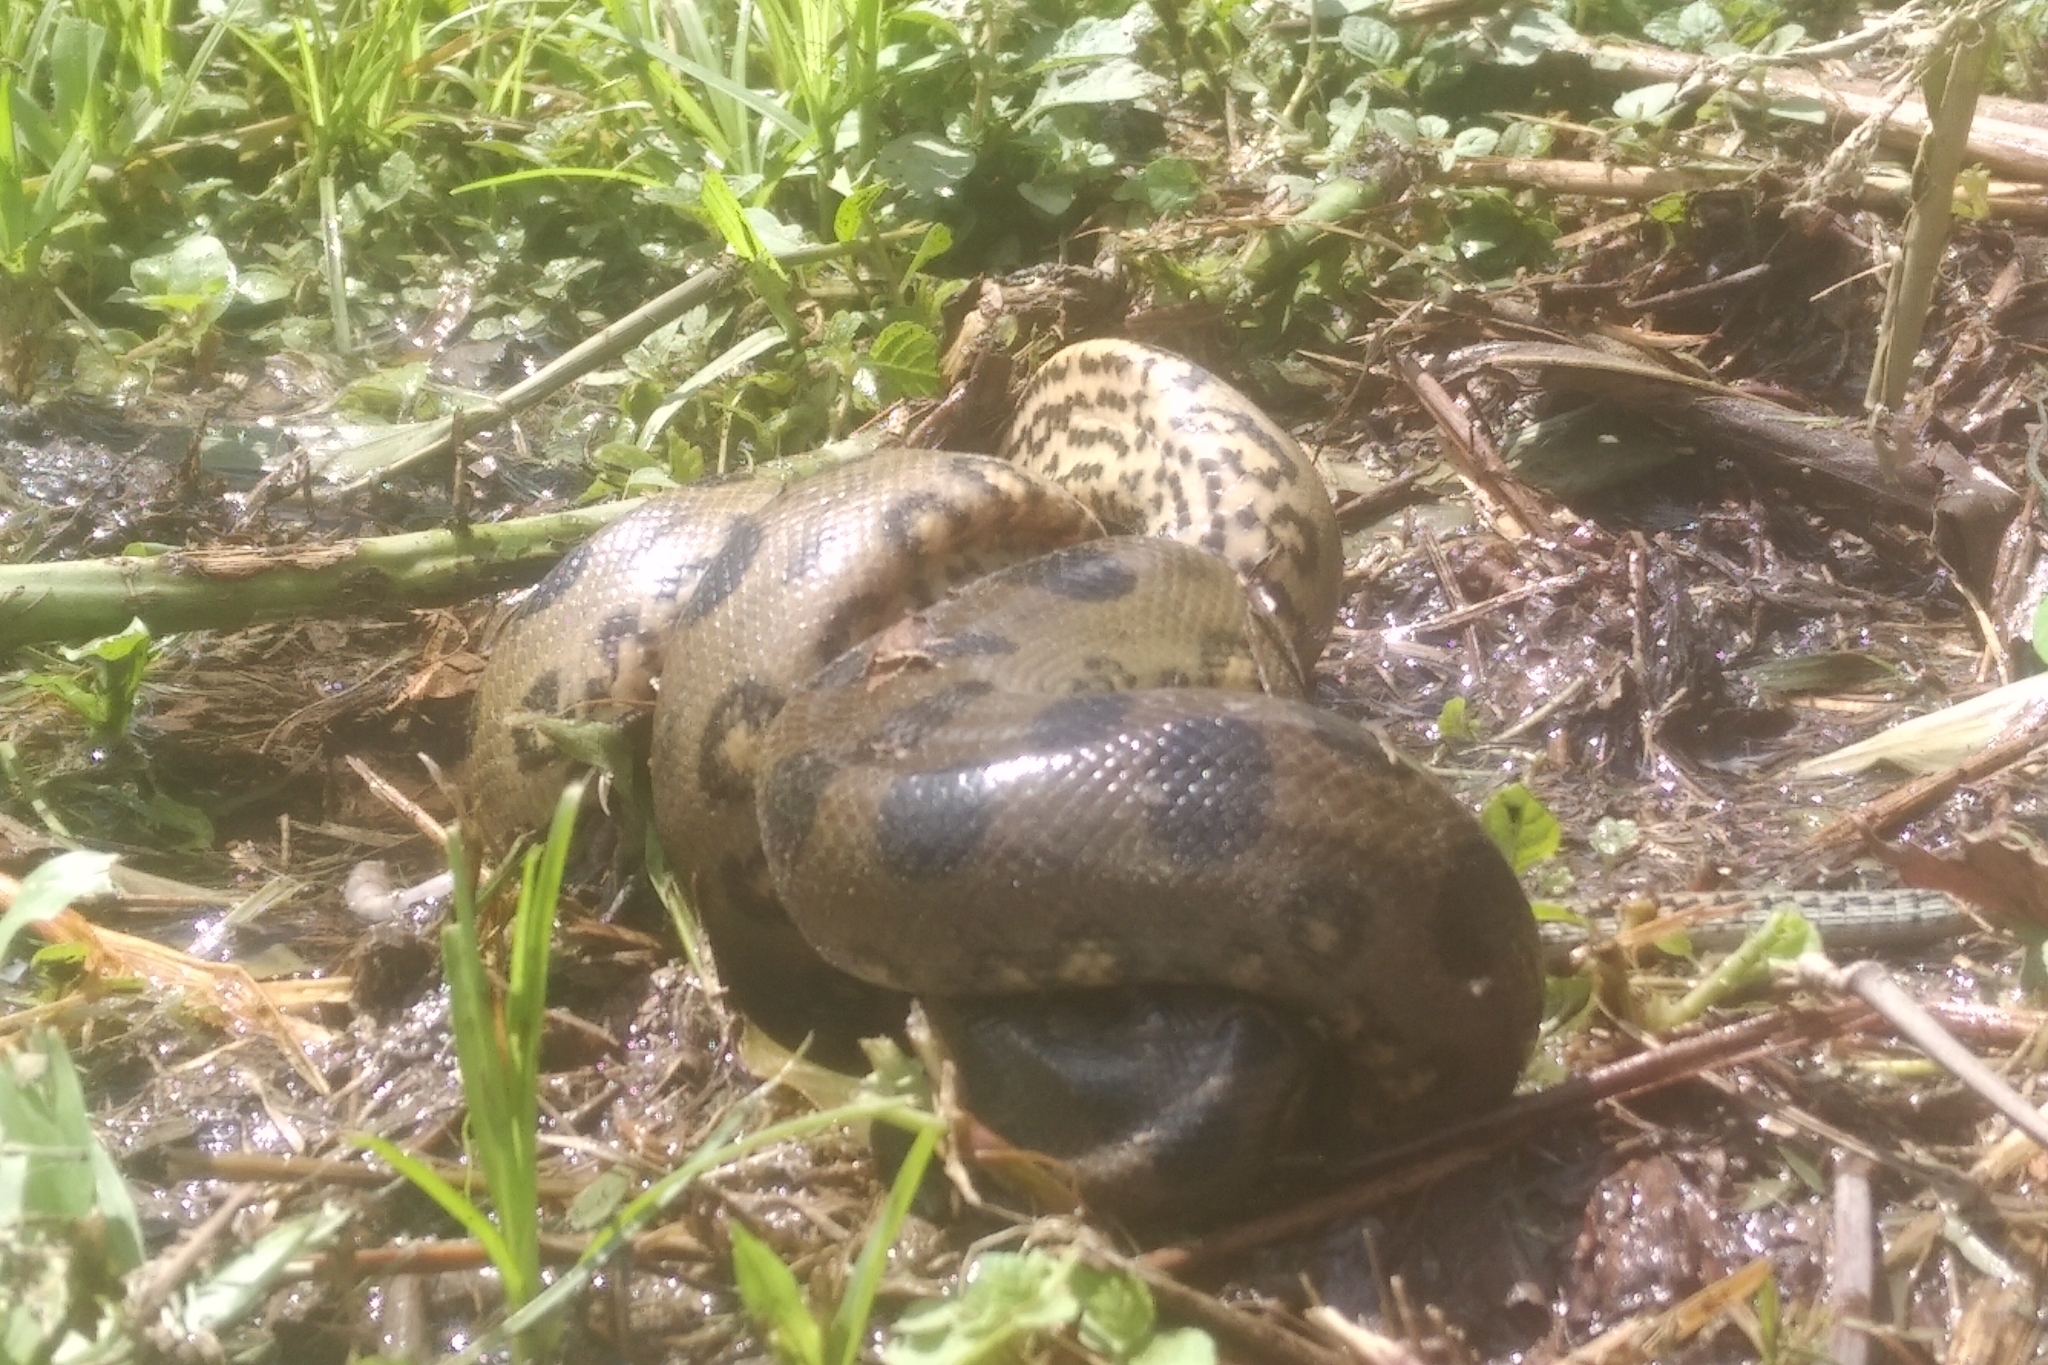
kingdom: Animalia
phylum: Chordata
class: Squamata
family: Boidae
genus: Eunectes
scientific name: Eunectes murinus
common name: Anaconda
